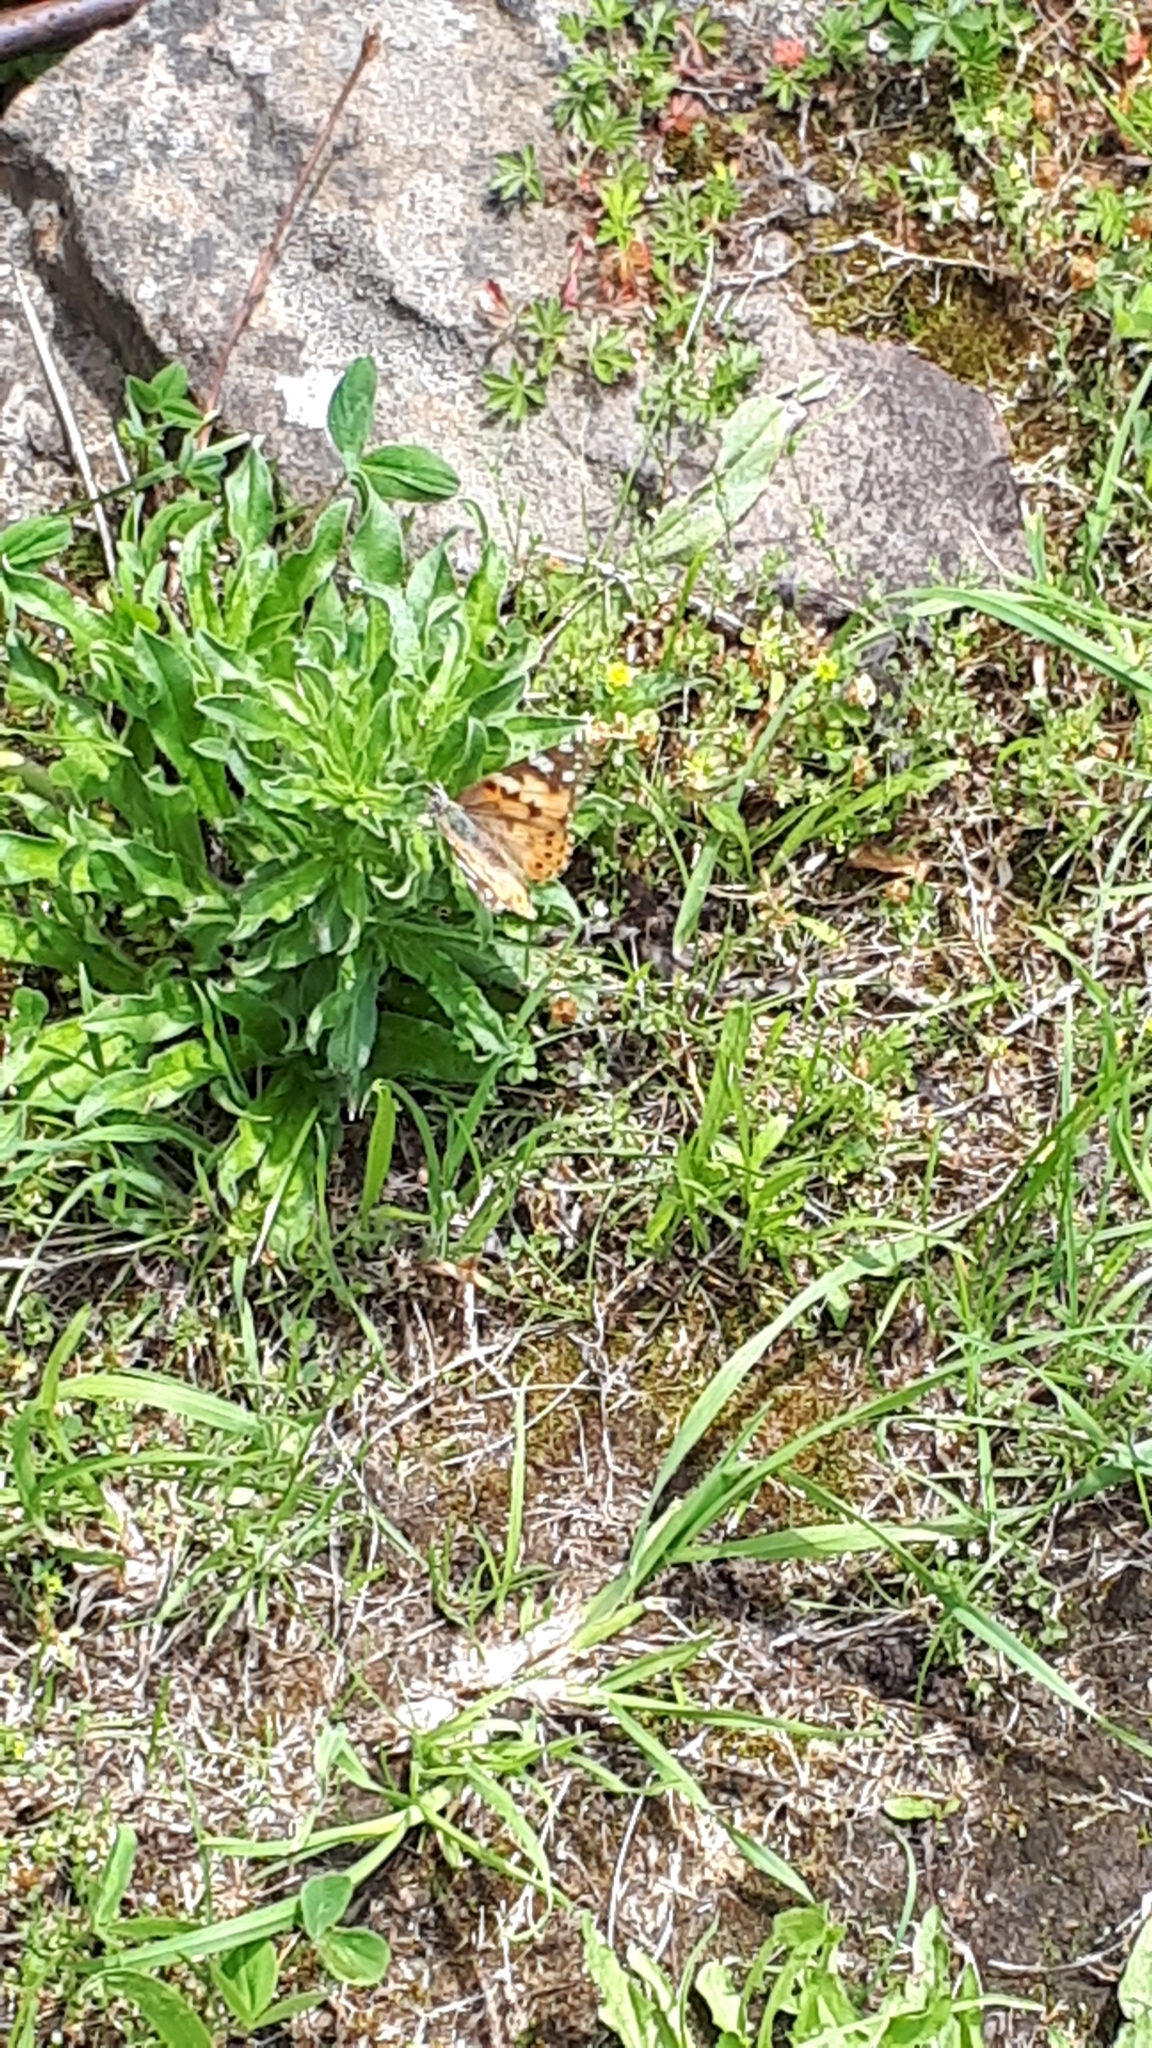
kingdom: Animalia
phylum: Arthropoda
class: Insecta
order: Lepidoptera
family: Nymphalidae
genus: Vanessa
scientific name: Vanessa cardui
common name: Painted lady
